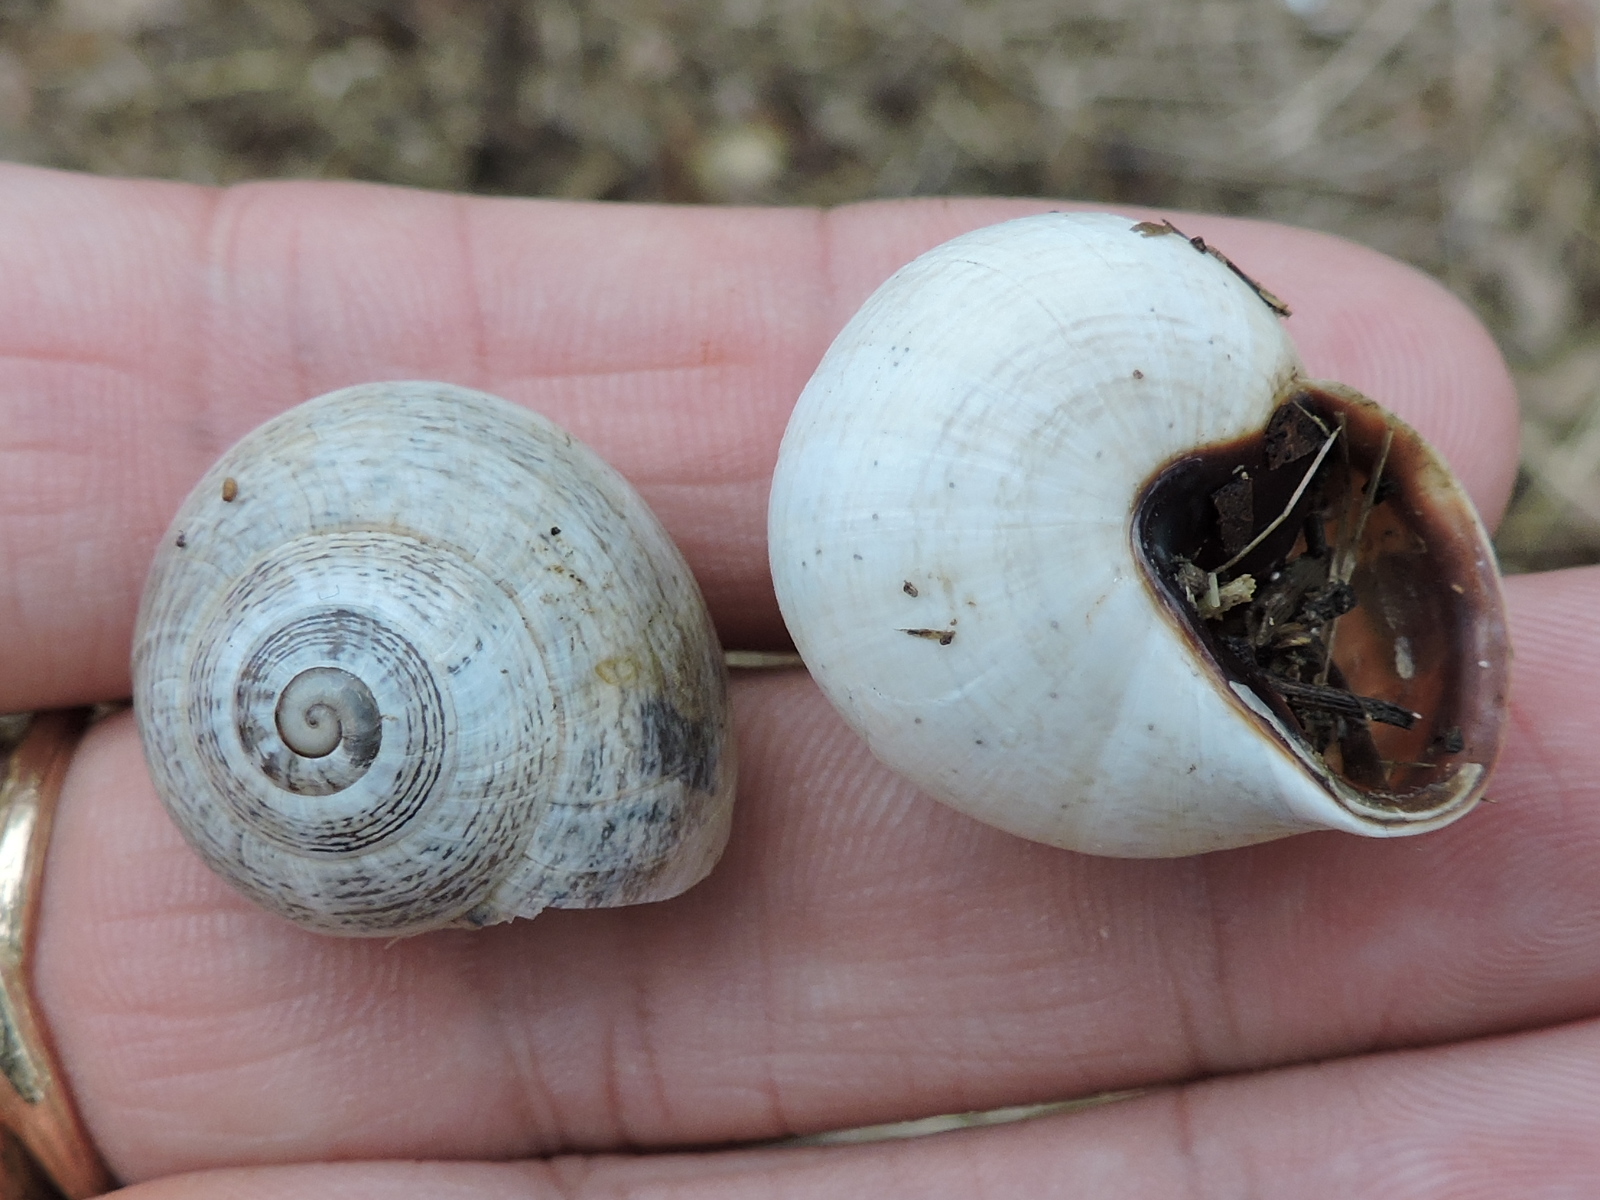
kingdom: Animalia
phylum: Mollusca
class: Gastropoda
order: Stylommatophora
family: Helicidae
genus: Otala
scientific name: Otala lactea
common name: Milk snail
